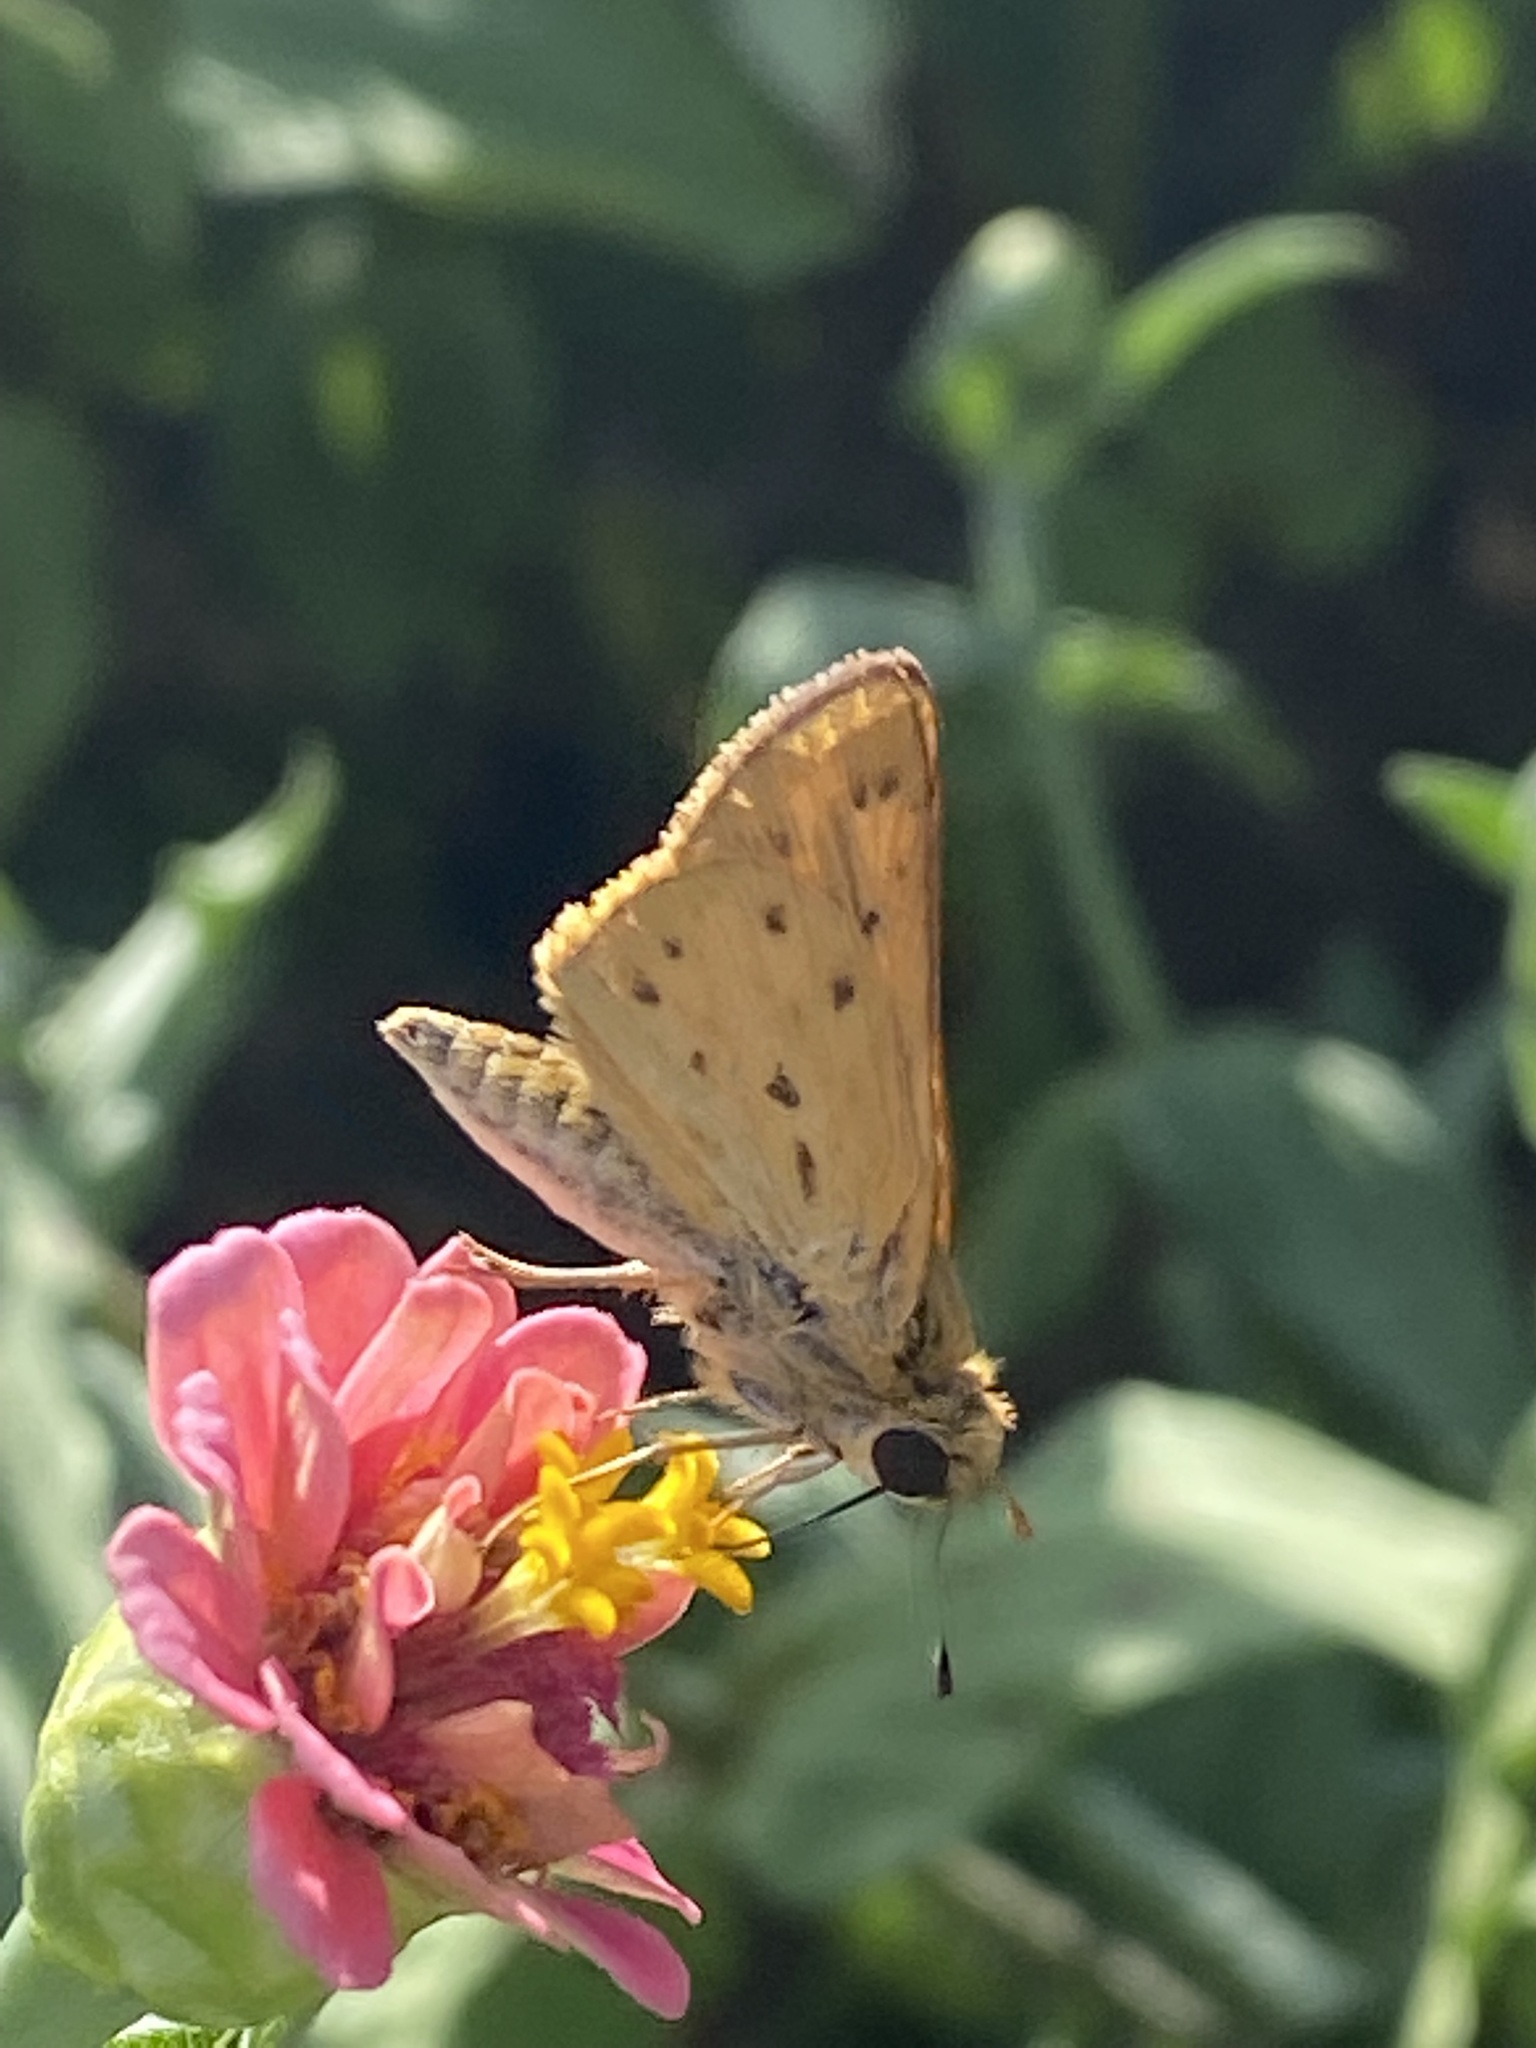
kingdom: Animalia
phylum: Arthropoda
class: Insecta
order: Lepidoptera
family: Hesperiidae
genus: Hylephila
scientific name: Hylephila phyleus
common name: Fiery skipper
